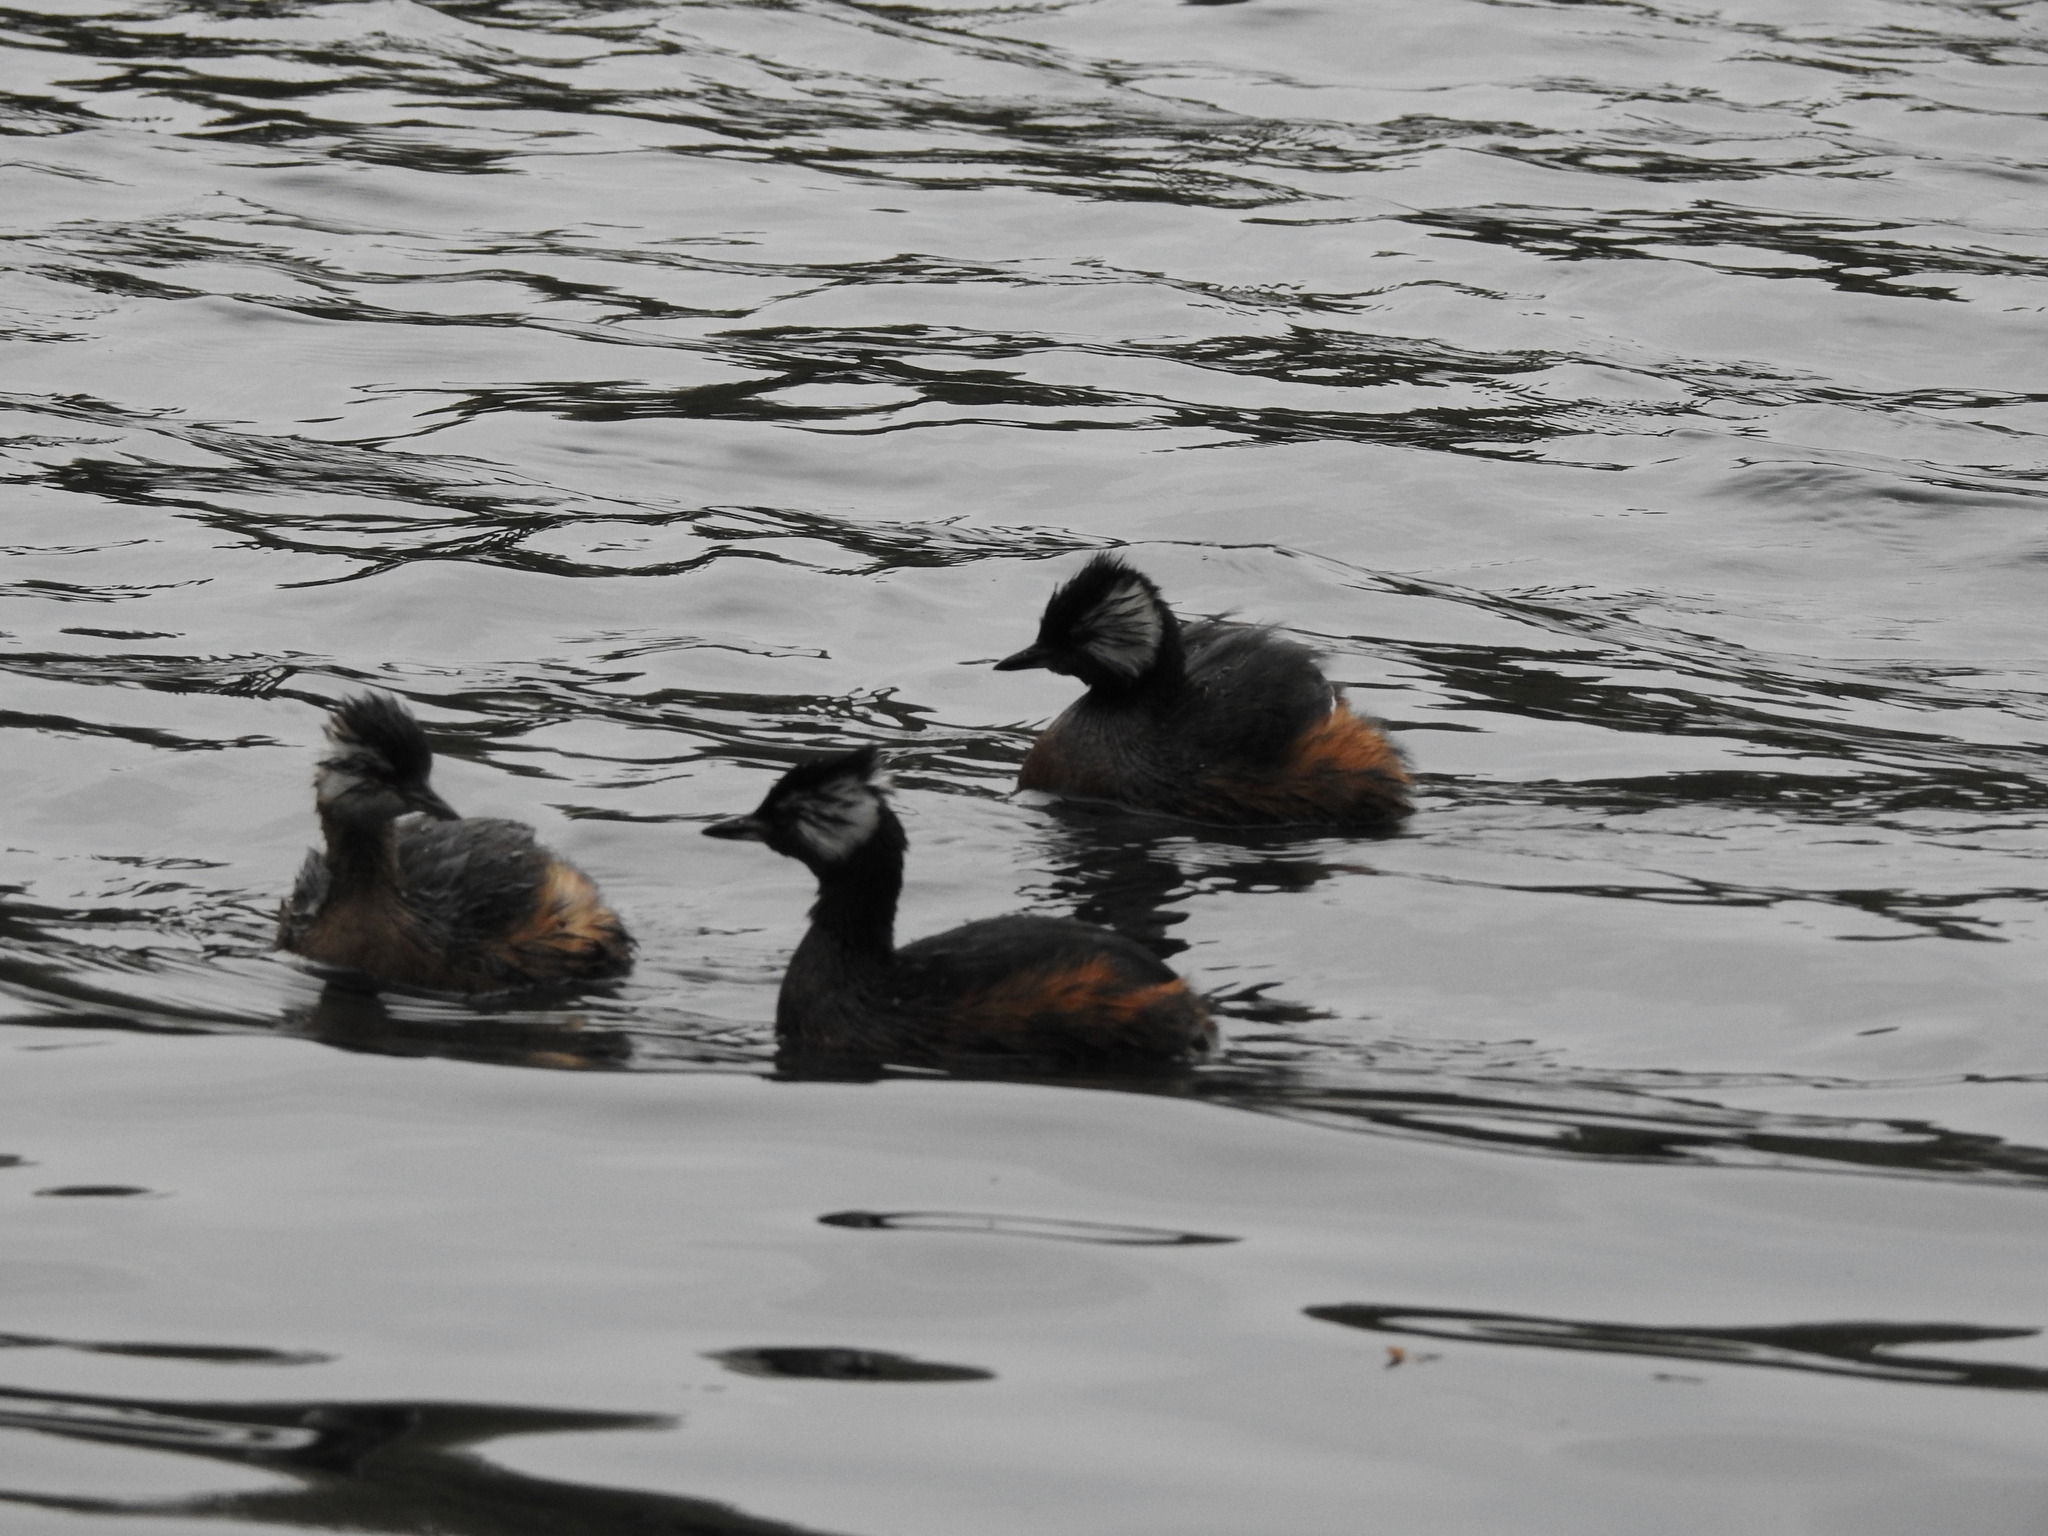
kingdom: Animalia
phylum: Chordata
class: Aves
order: Podicipediformes
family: Podicipedidae
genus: Rollandia
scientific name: Rollandia rolland
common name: White-tufted grebe
